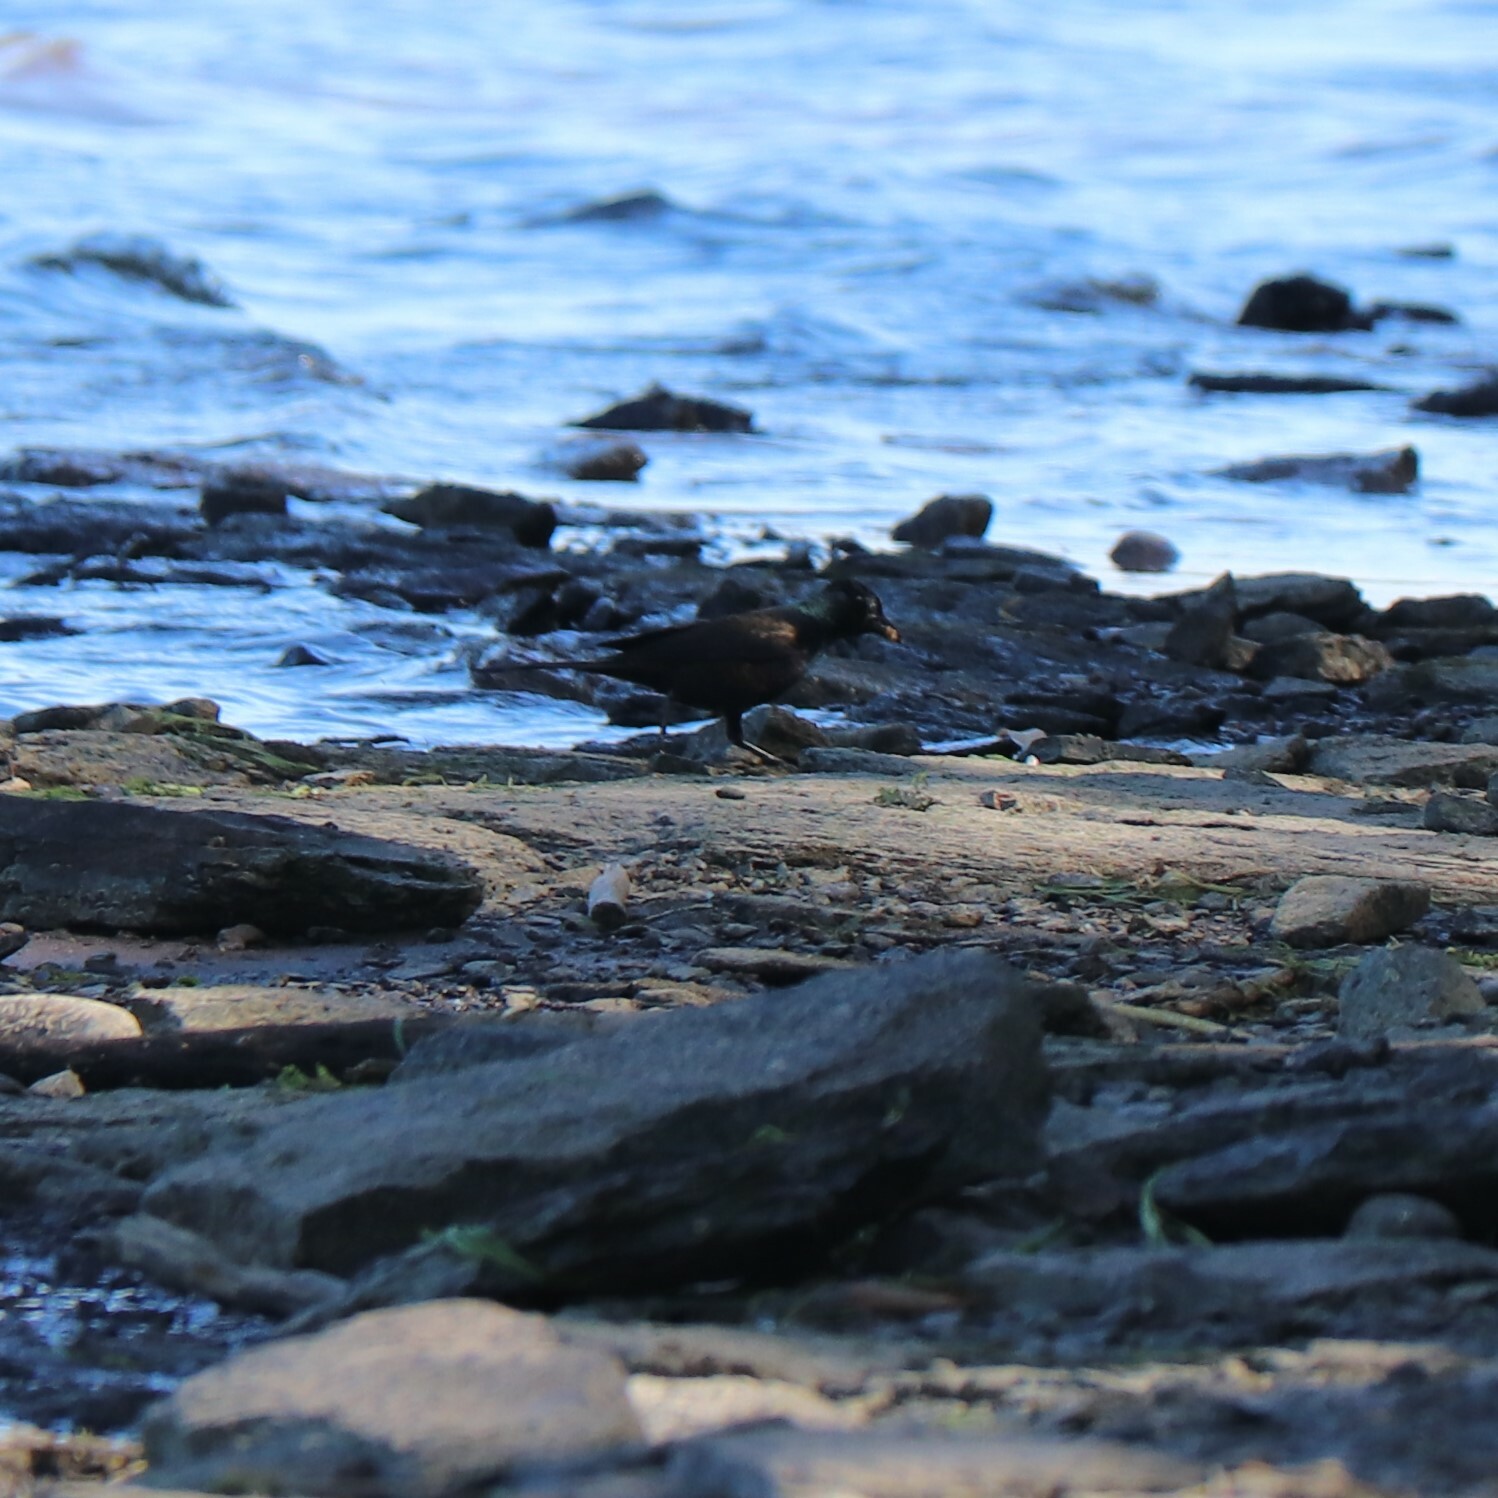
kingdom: Animalia
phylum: Chordata
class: Aves
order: Passeriformes
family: Icteridae
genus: Quiscalus
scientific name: Quiscalus quiscula
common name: Common grackle
